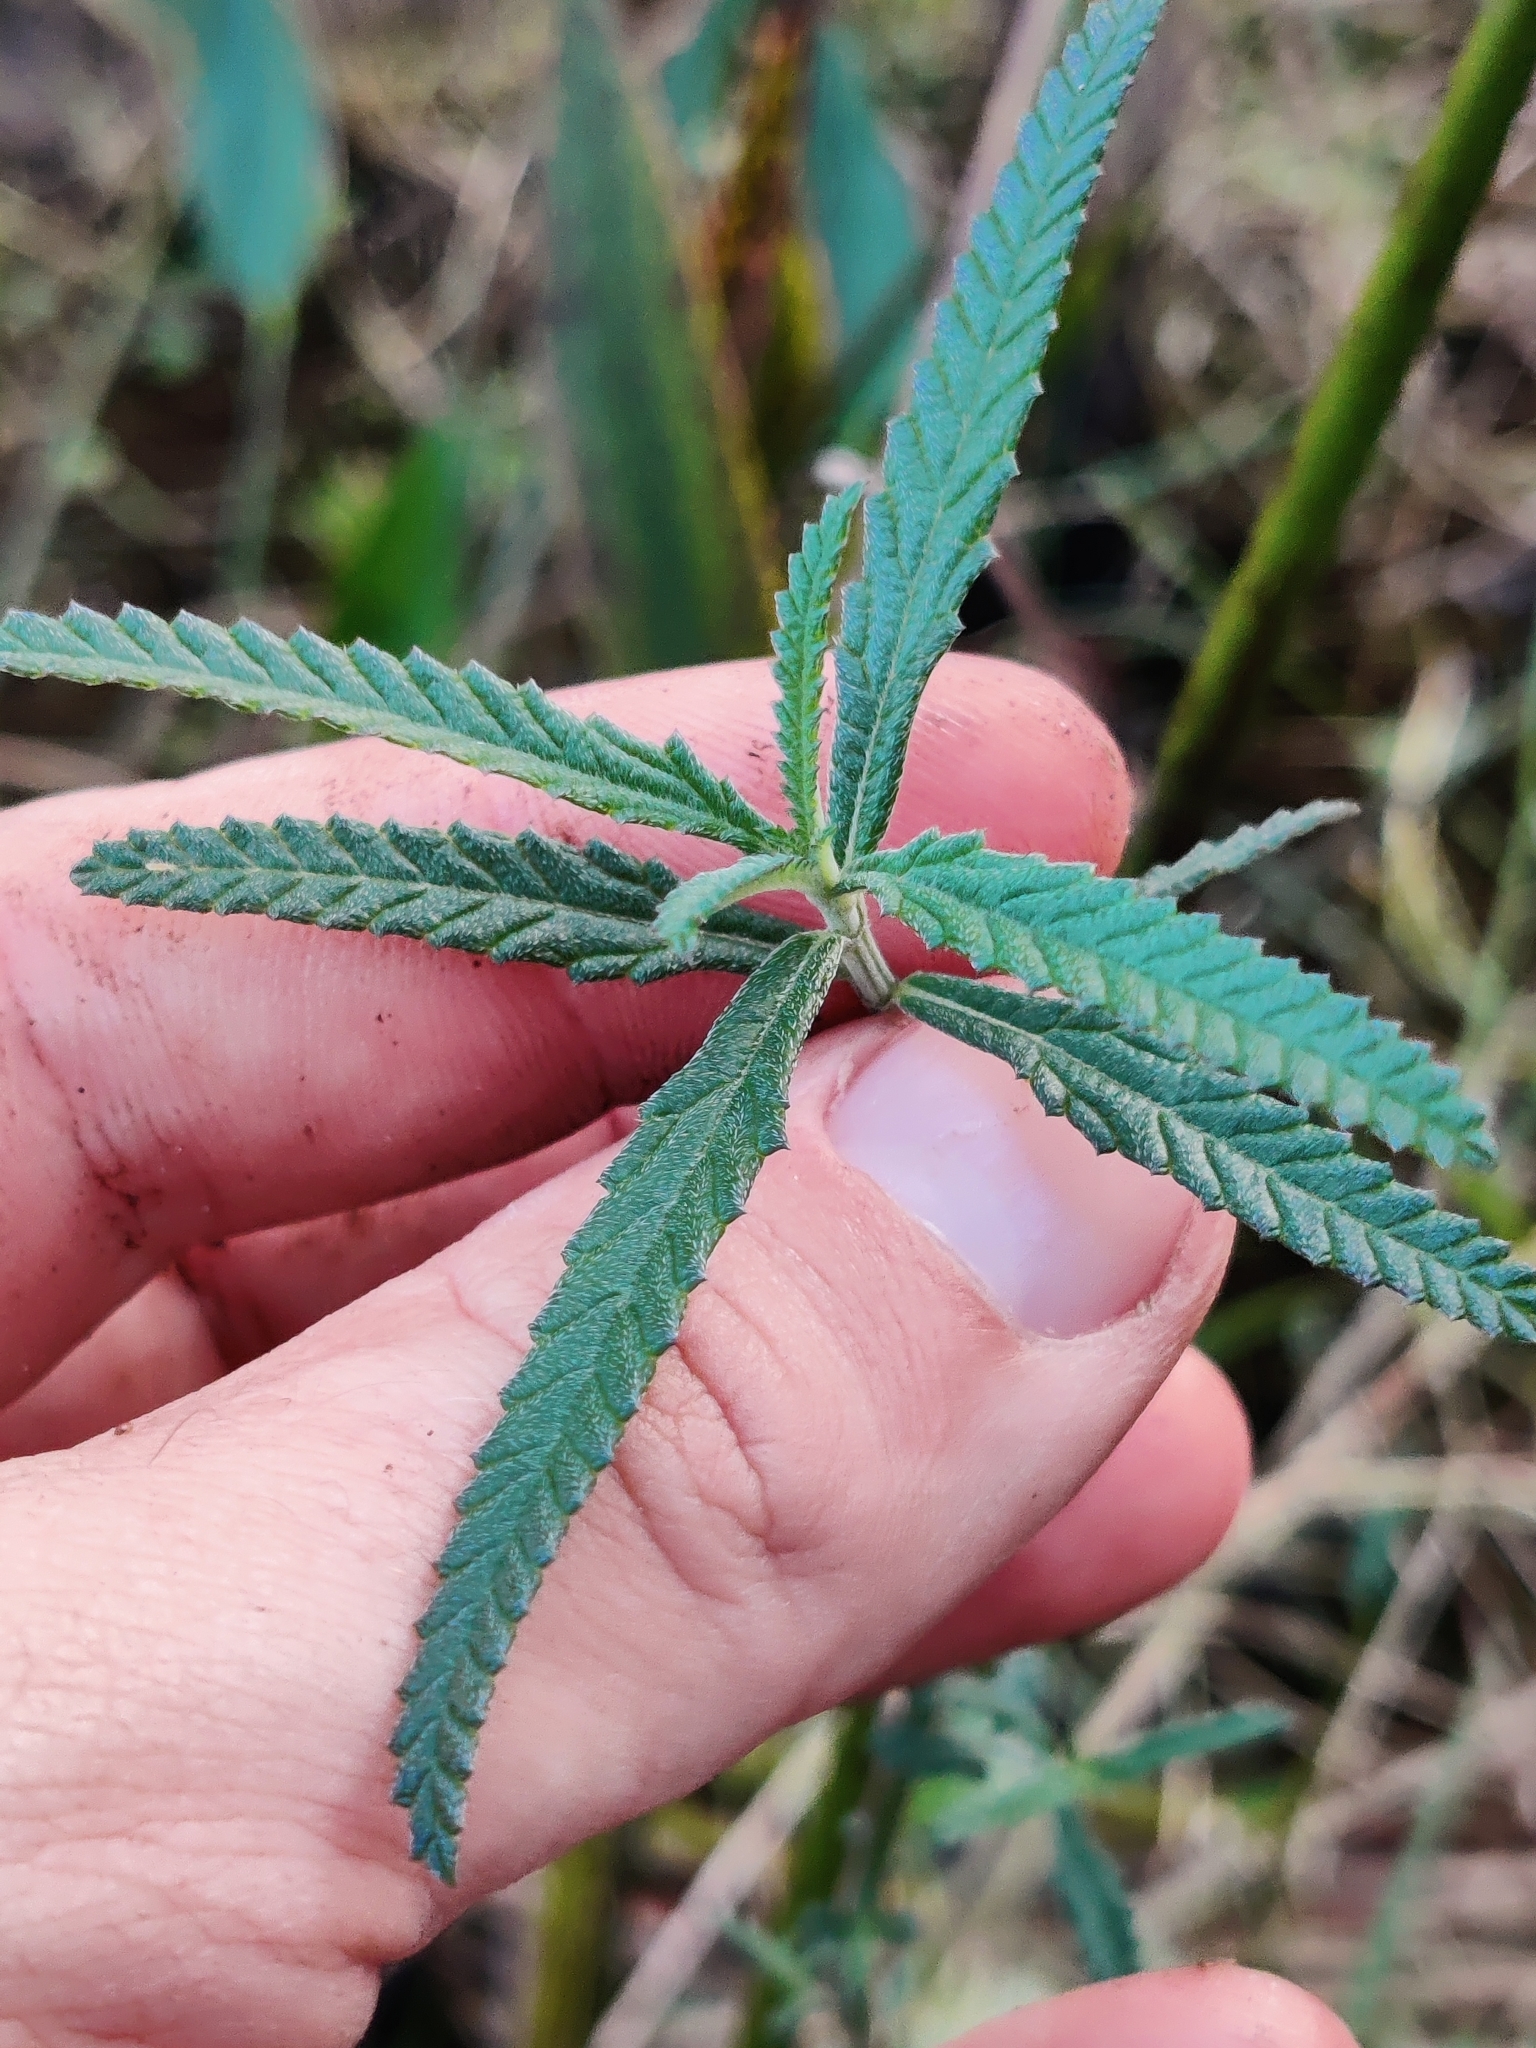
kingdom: Plantae
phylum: Tracheophyta
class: Magnoliopsida
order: Lamiales
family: Verbenaceae
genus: Lippia
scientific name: Lippia stoechadifolia
